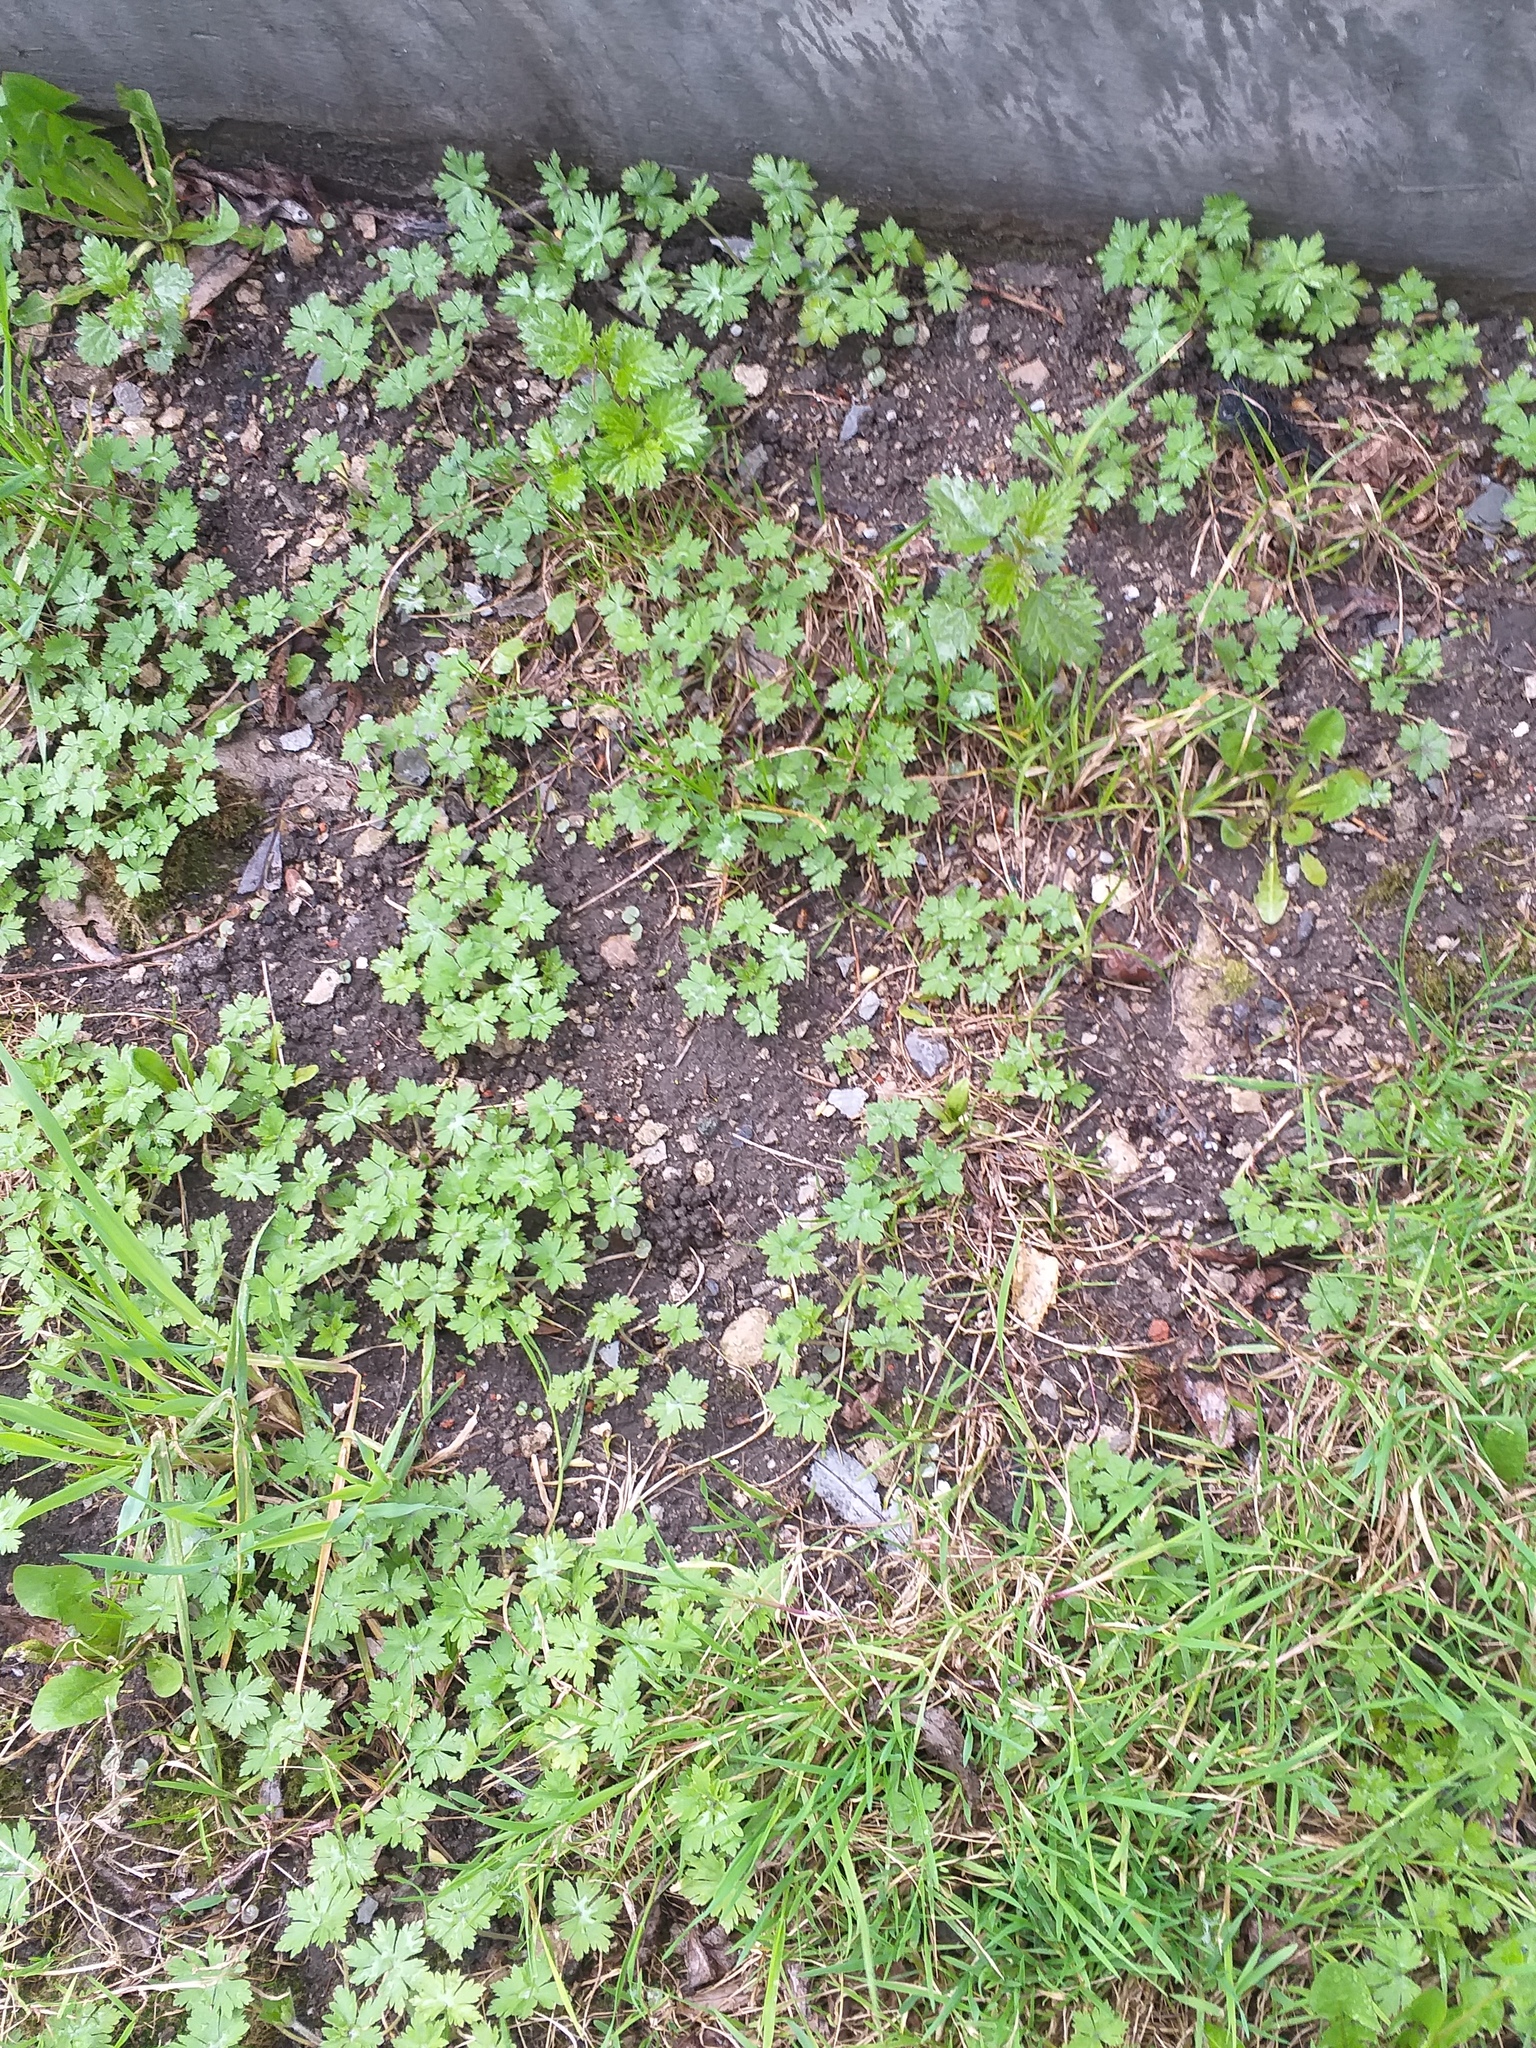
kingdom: Plantae
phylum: Tracheophyta
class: Magnoliopsida
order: Geraniales
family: Geraniaceae
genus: Geranium
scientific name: Geranium sibiricum
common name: Siberian crane's-bill
